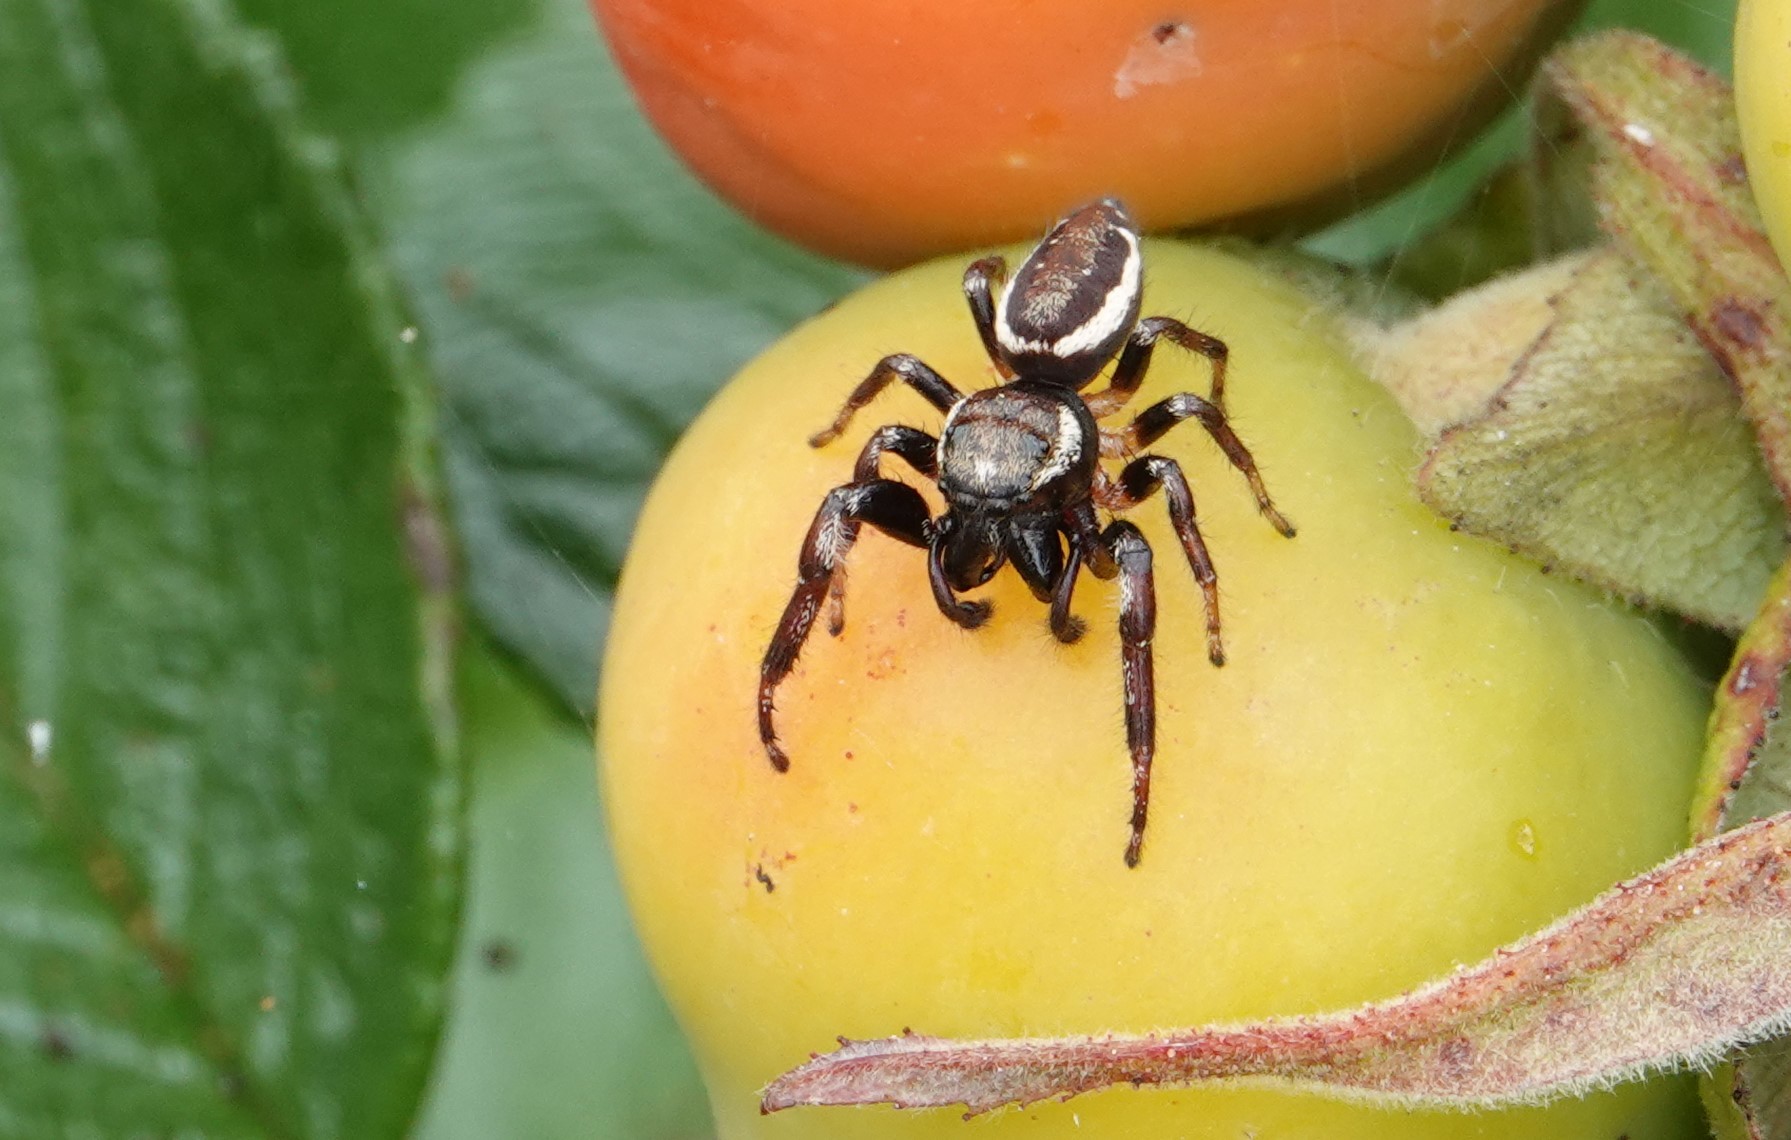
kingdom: Animalia
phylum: Arthropoda
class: Arachnida
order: Araneae
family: Salticidae
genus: Eris
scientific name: Eris militaris
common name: Bronze jumper
